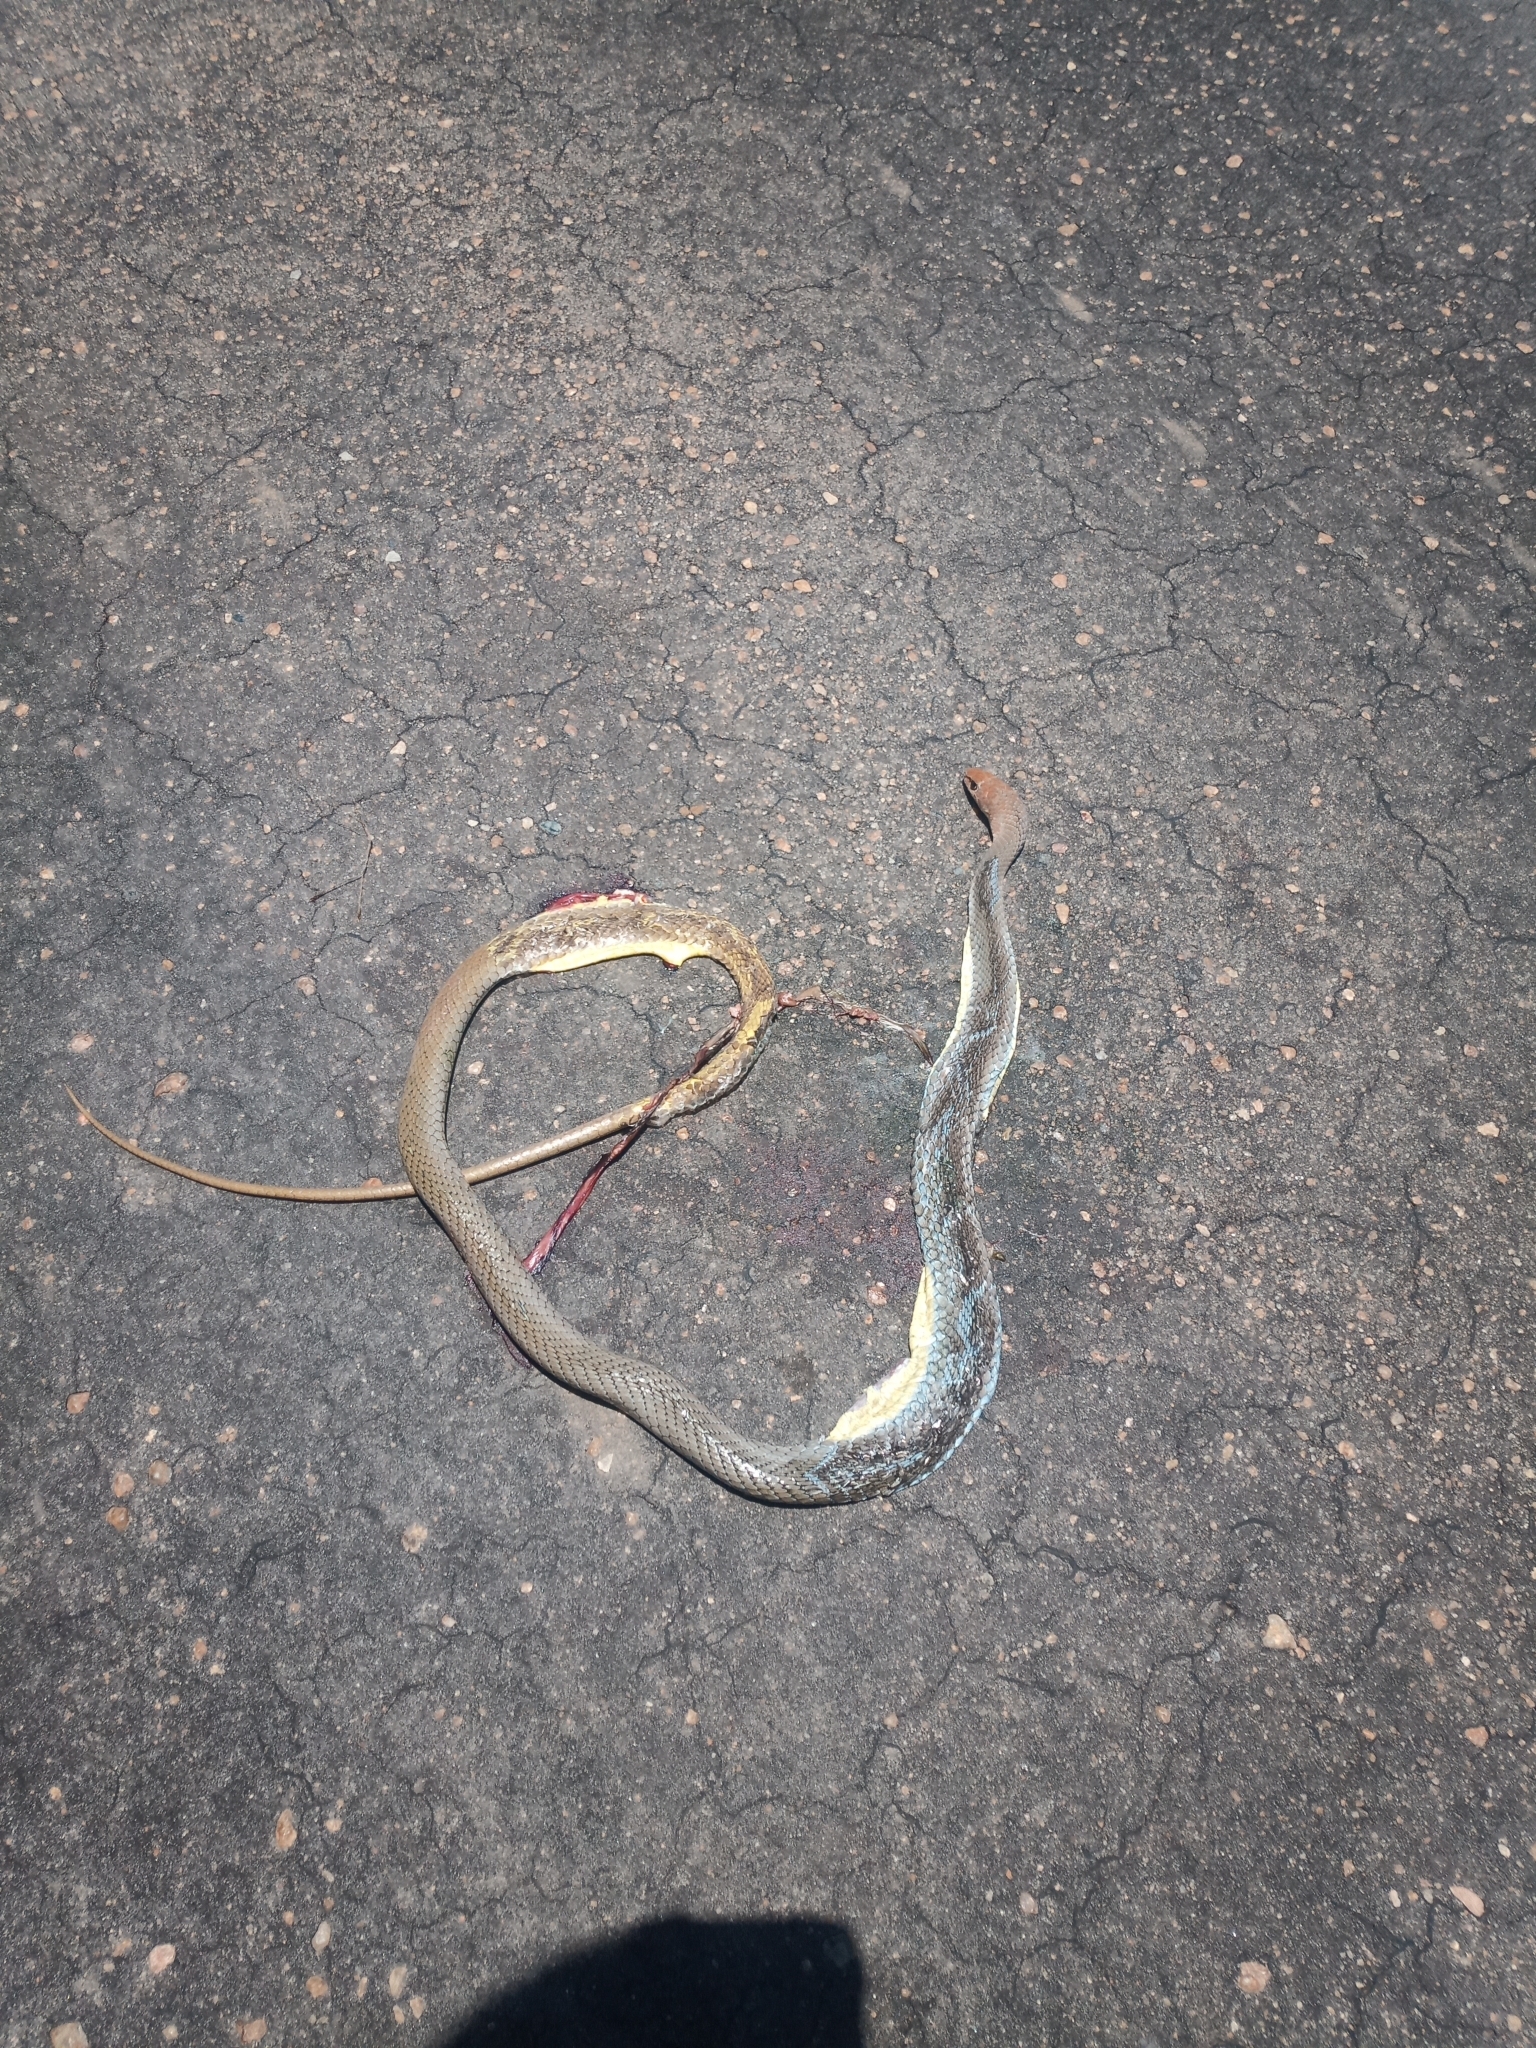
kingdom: Animalia
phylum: Chordata
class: Squamata
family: Psammophiidae
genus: Psammophis
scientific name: Psammophis mossambicus
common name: Olive grass snake
